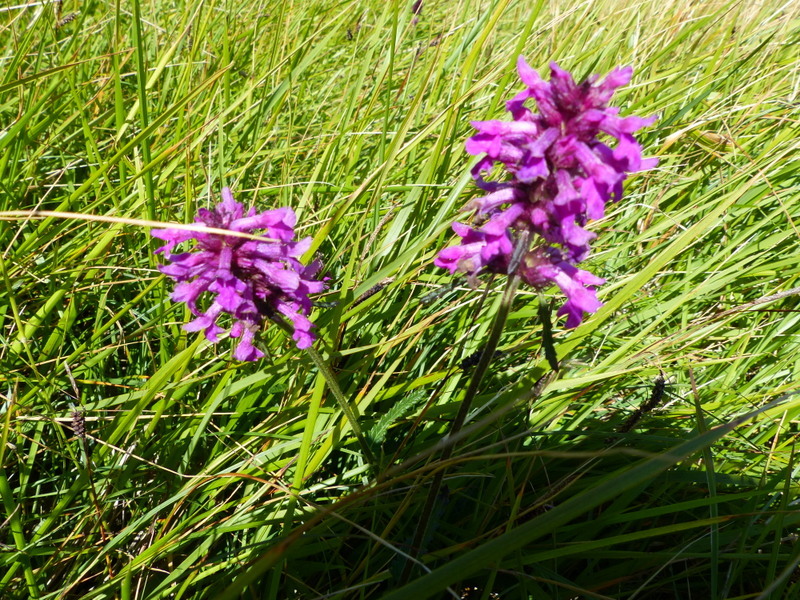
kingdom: Plantae
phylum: Tracheophyta
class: Magnoliopsida
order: Lamiales
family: Lamiaceae
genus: Betonica
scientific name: Betonica officinalis
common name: Bishop's-wort
